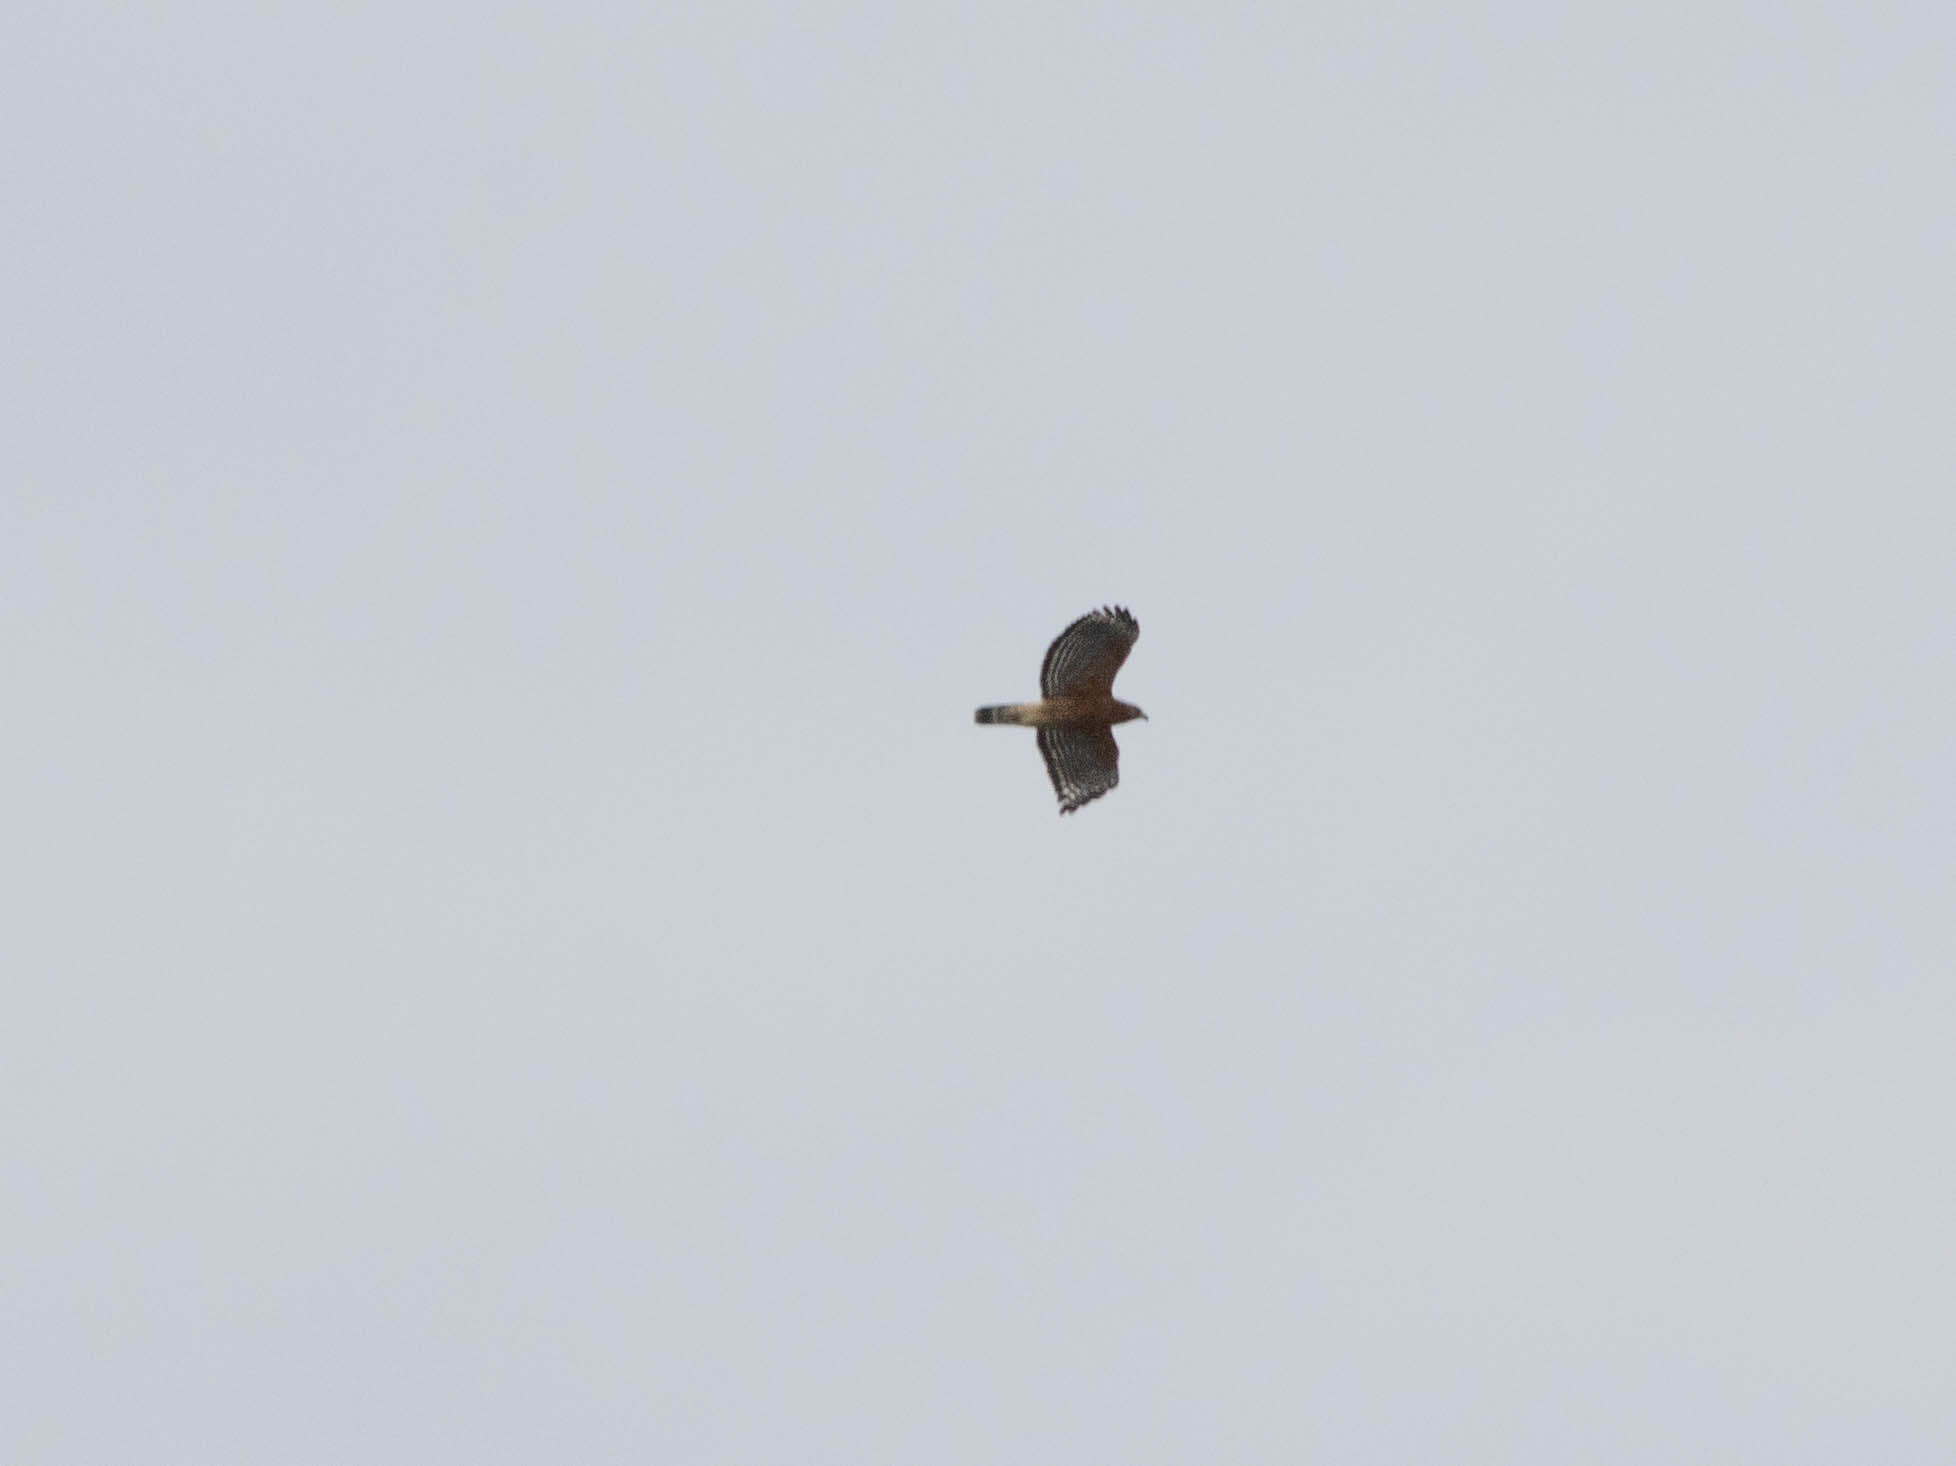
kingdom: Animalia
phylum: Chordata
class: Aves
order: Accipitriformes
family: Accipitridae
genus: Buteo
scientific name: Buteo lineatus
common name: Red-shouldered hawk
